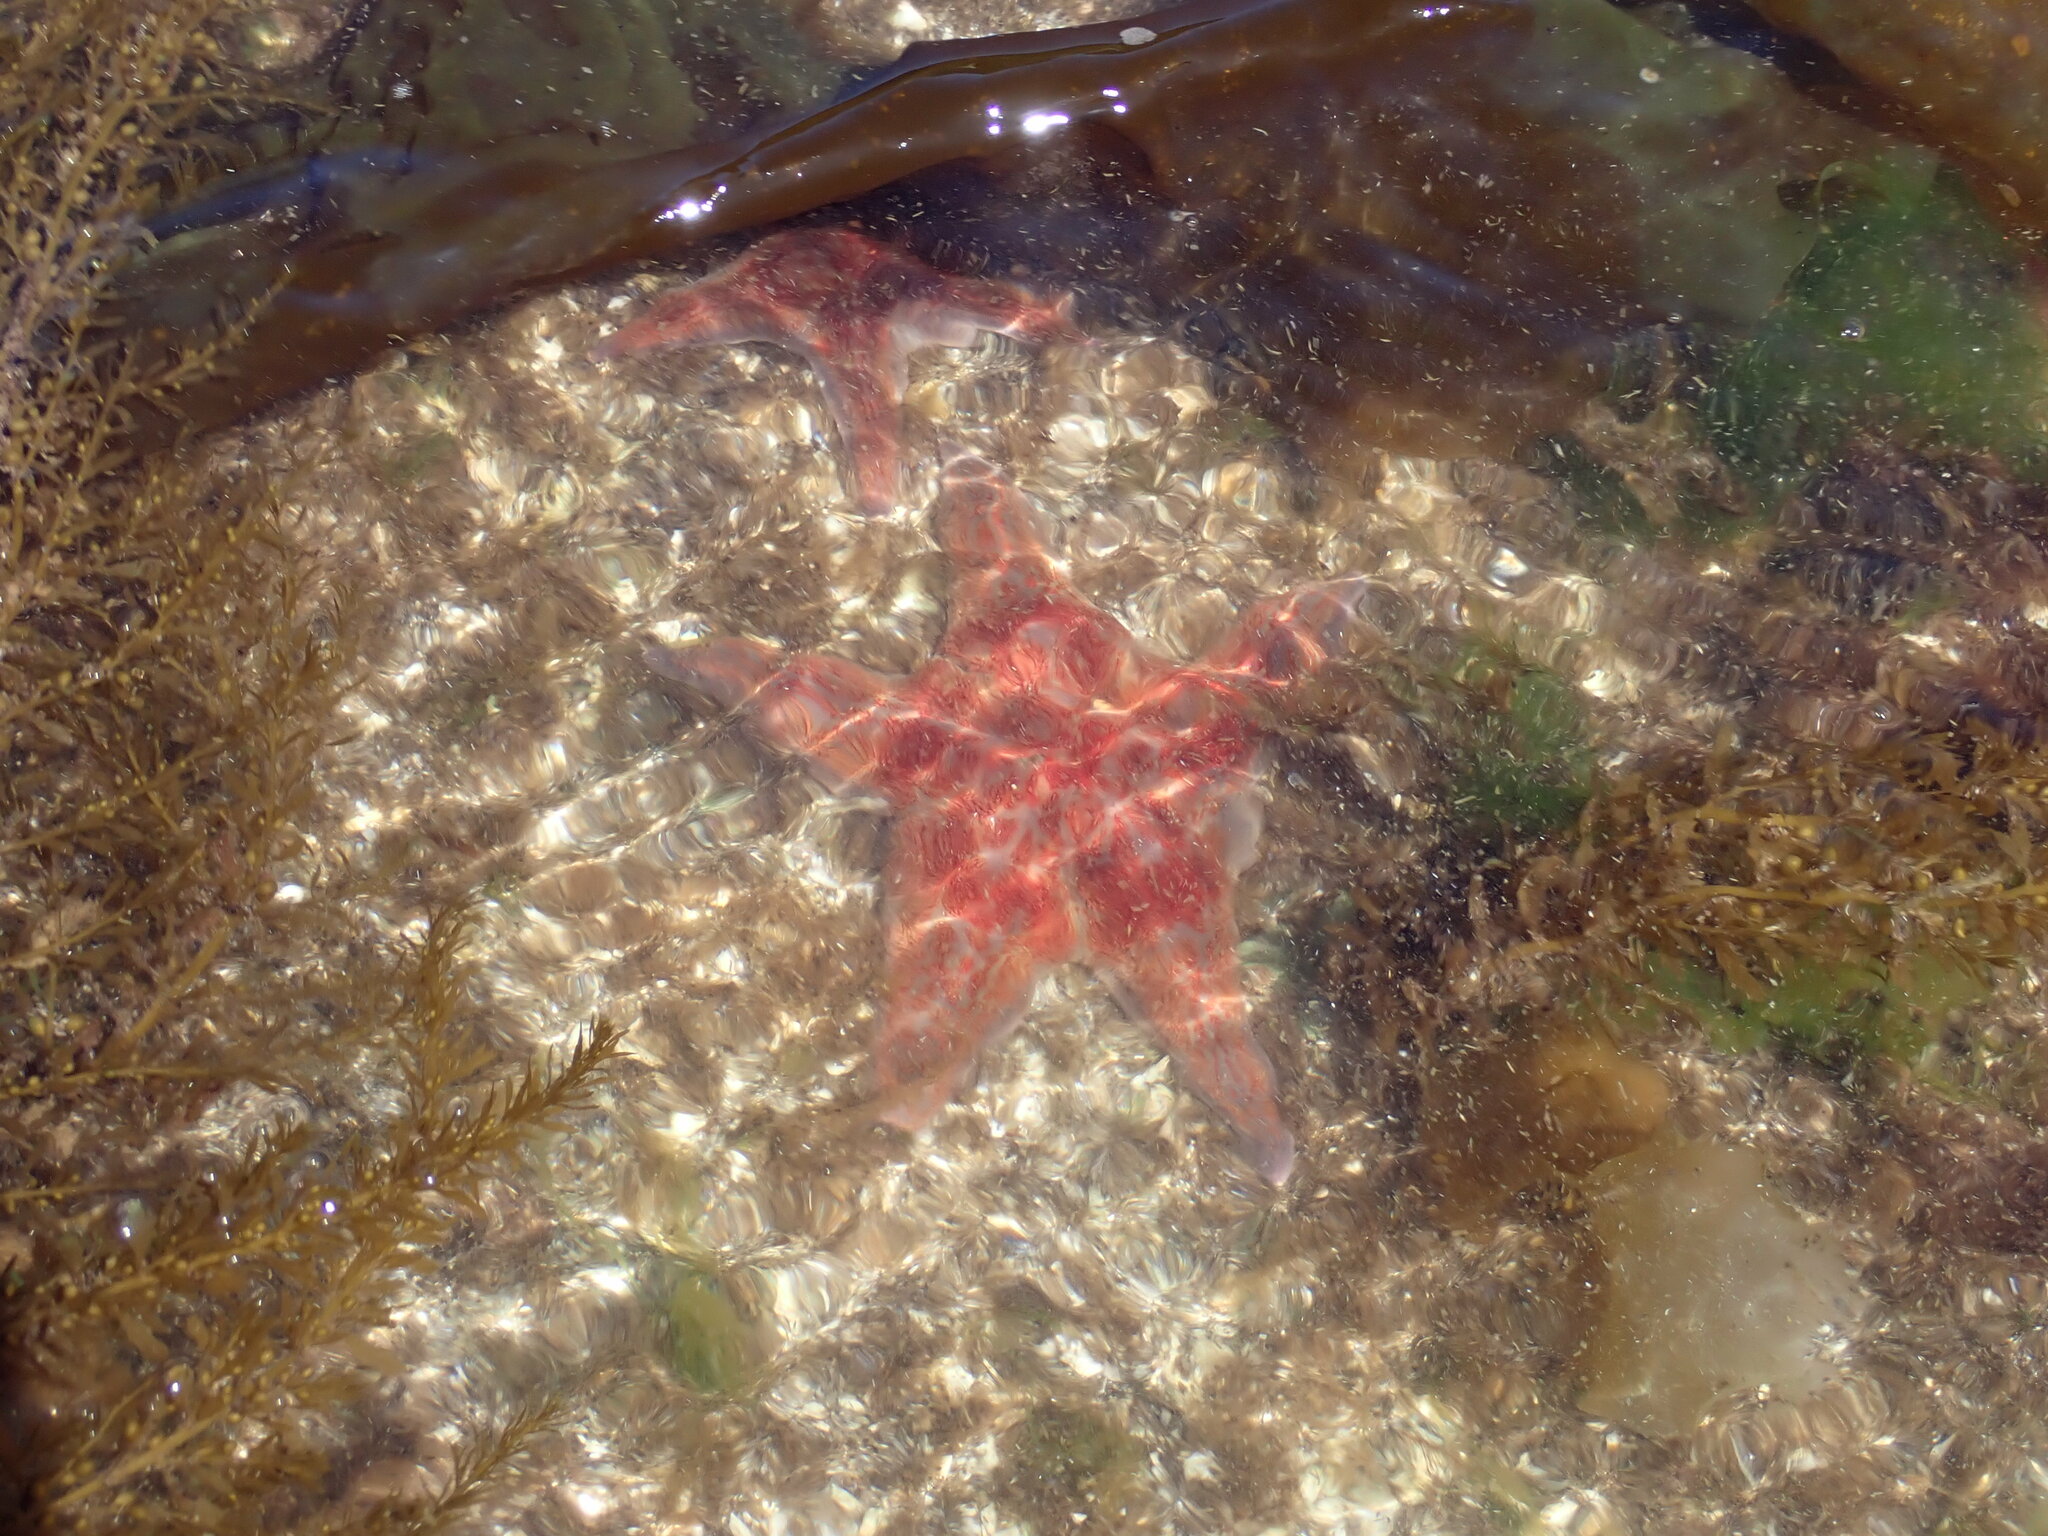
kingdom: Animalia
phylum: Echinodermata
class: Asteroidea
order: Valvatida
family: Asteropseidae
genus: Dermasterias
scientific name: Dermasterias imbricata
